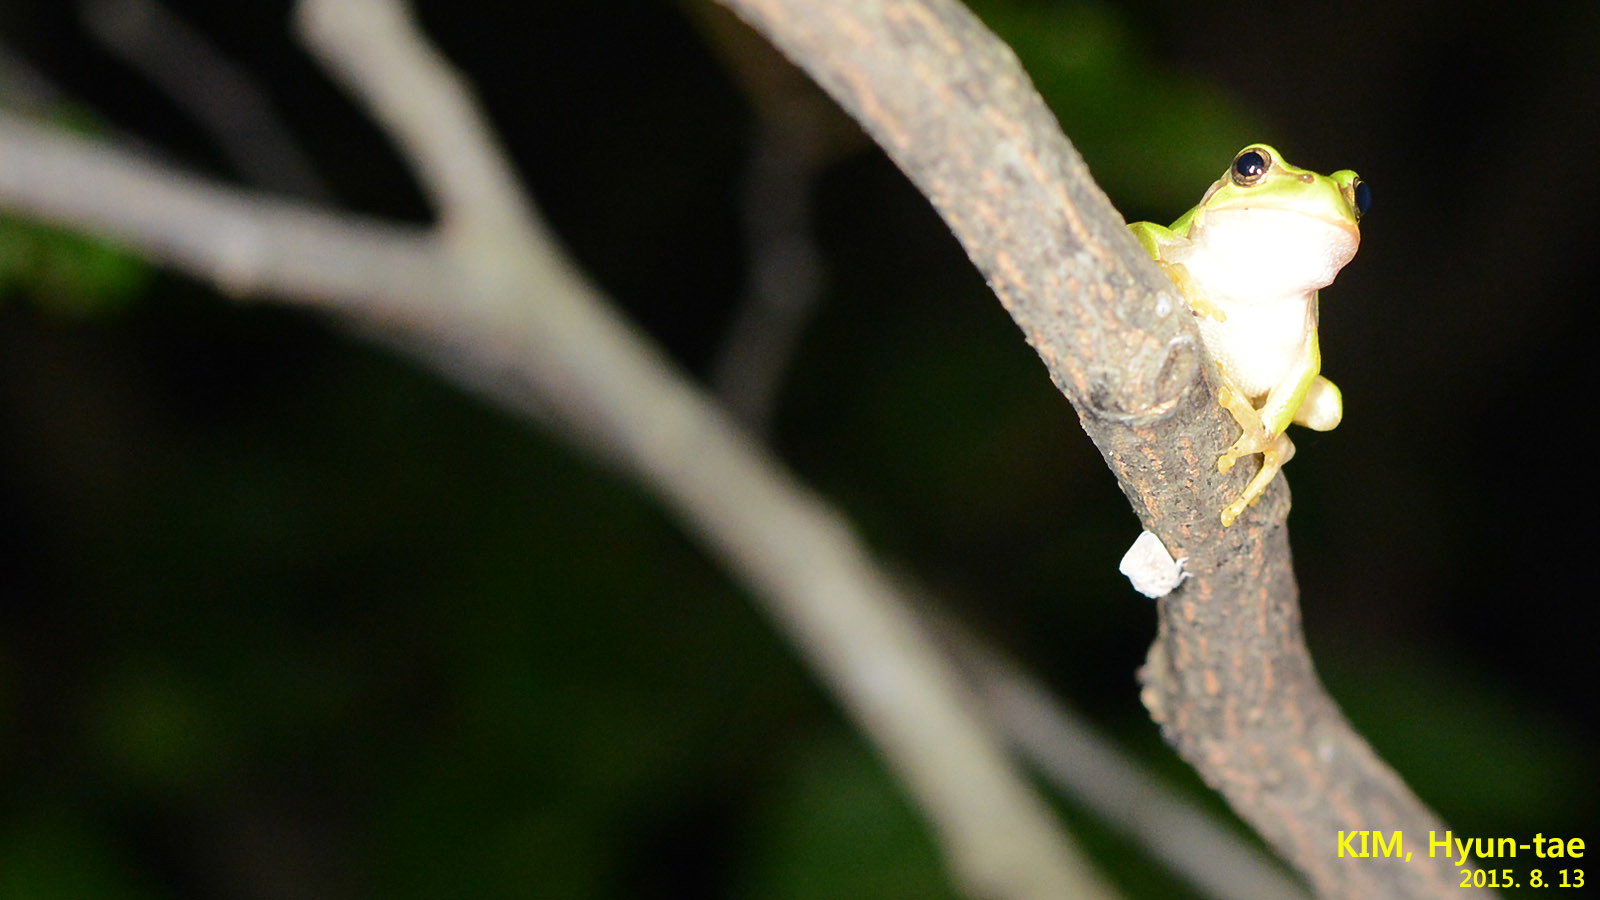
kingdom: Animalia
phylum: Chordata
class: Amphibia
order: Anura
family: Hylidae
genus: Dryophytes
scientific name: Dryophytes japonicus
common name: Japanese treefrog
